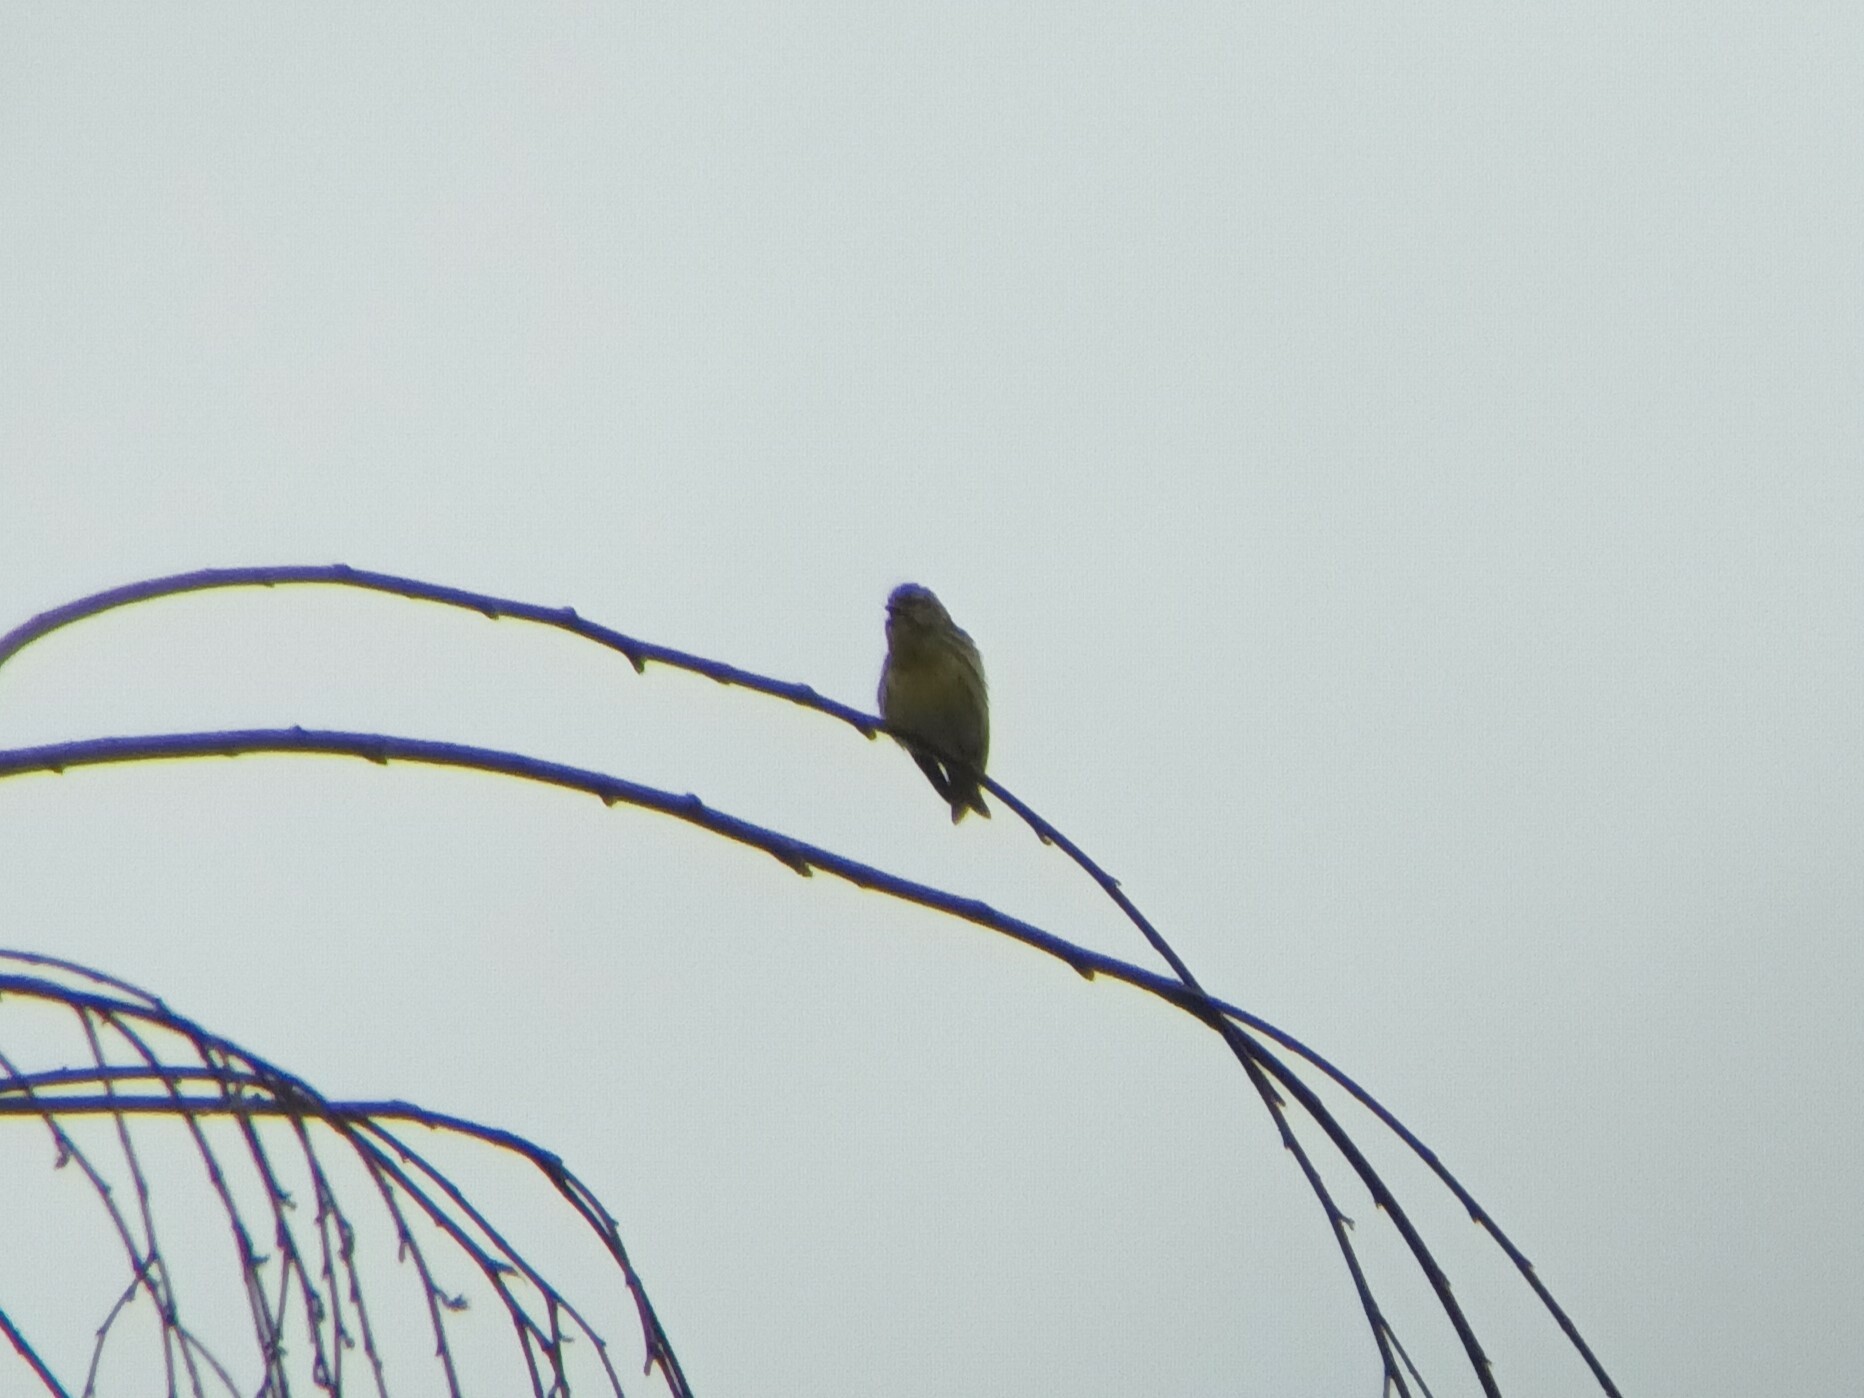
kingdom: Animalia
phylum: Chordata
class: Aves
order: Passeriformes
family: Fringillidae
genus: Serinus
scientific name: Serinus serinus
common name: European serin
